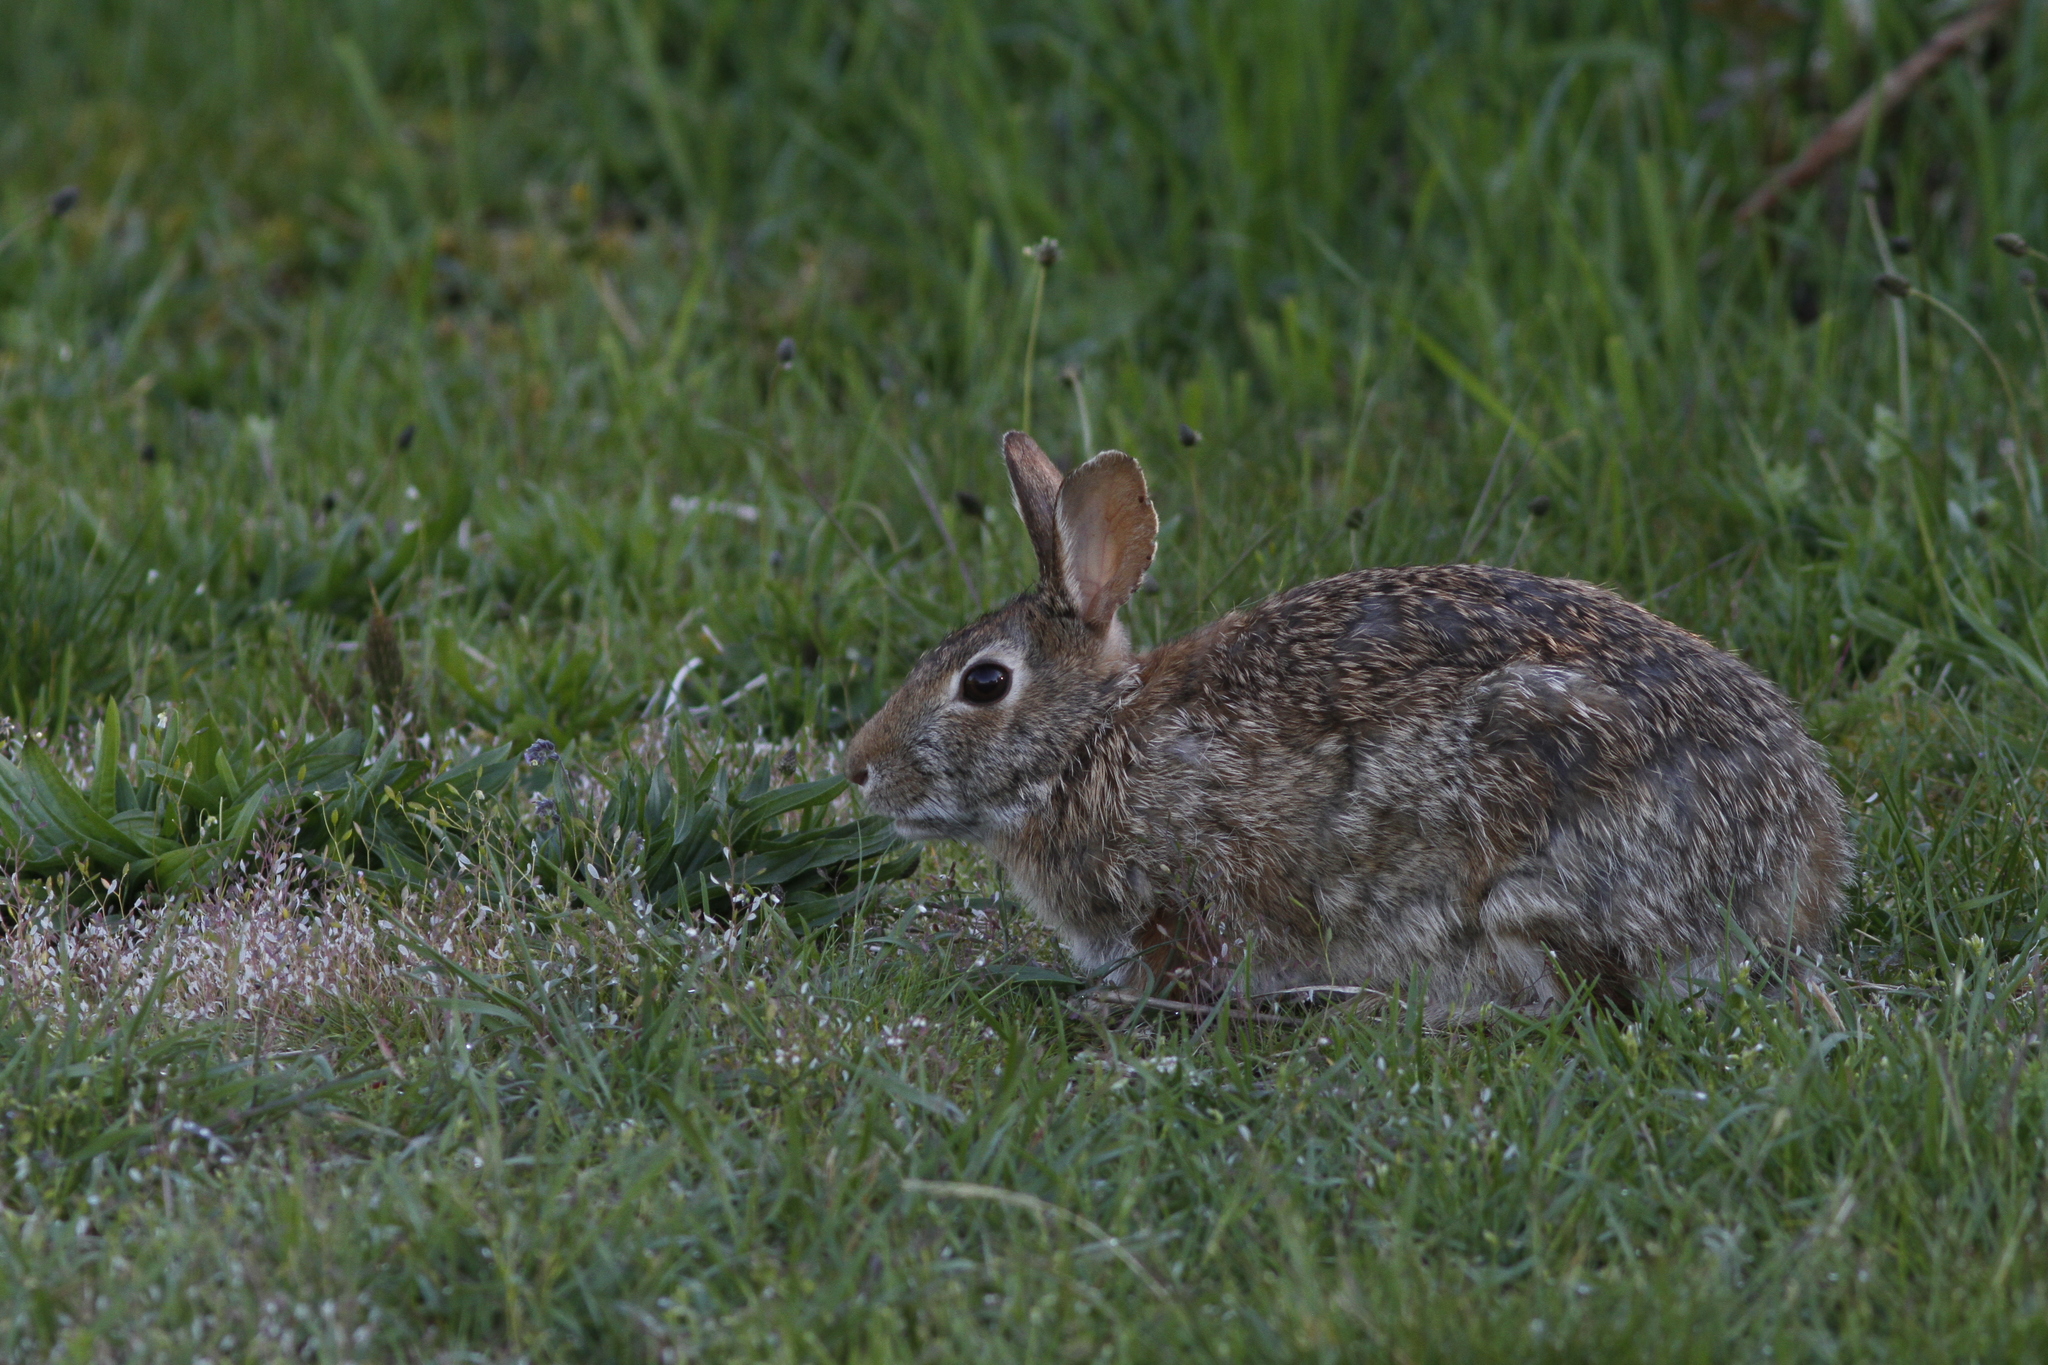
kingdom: Animalia
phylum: Chordata
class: Mammalia
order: Lagomorpha
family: Leporidae
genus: Sylvilagus
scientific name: Sylvilagus floridanus
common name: Eastern cottontail
